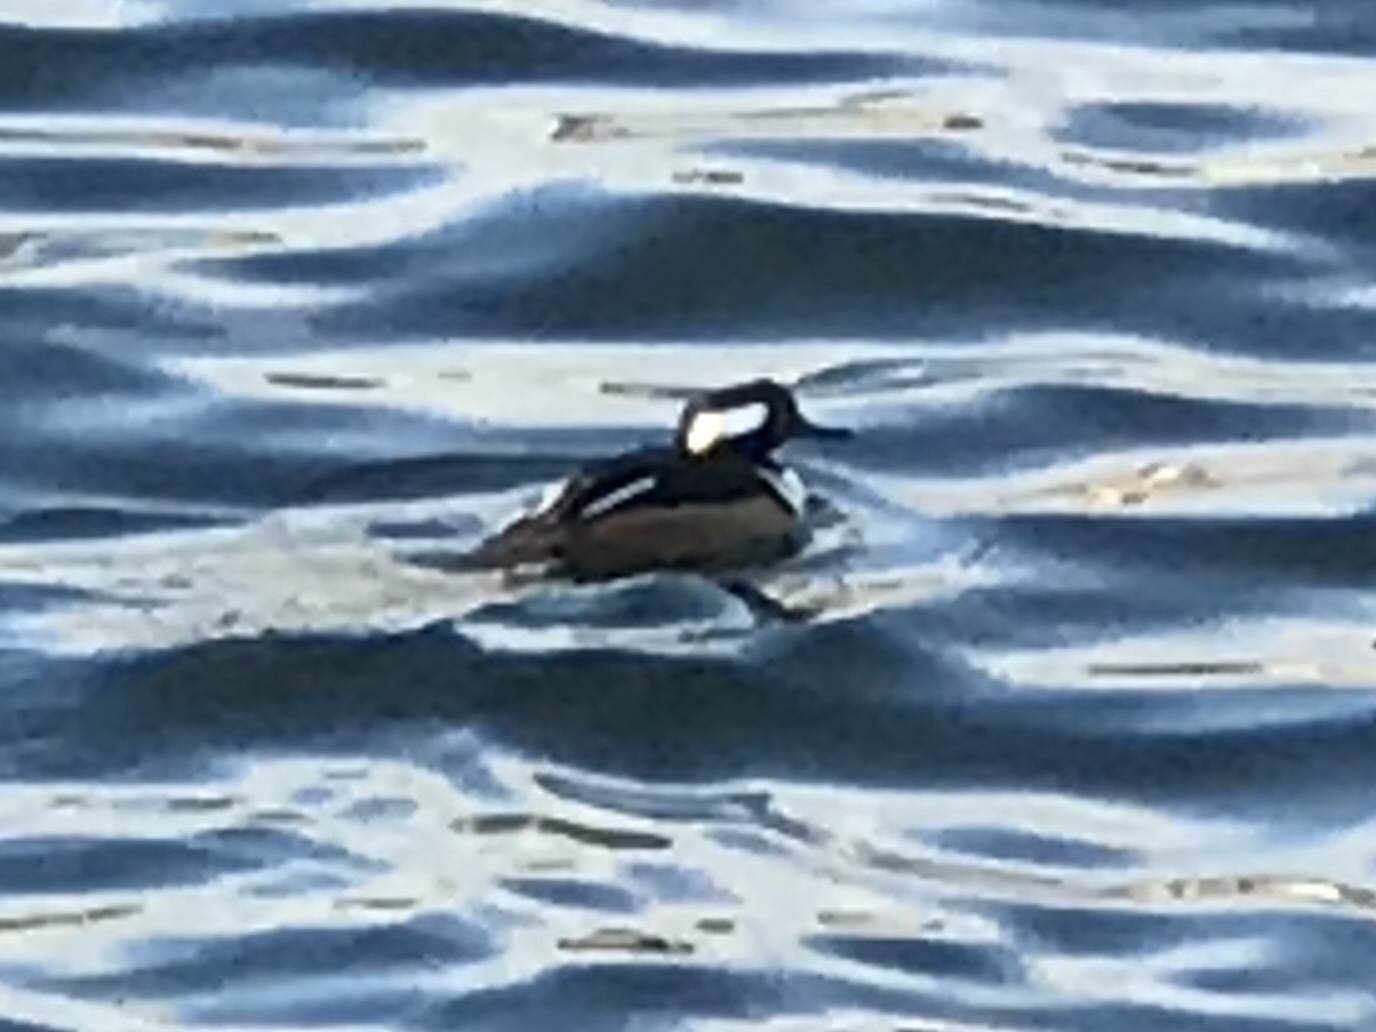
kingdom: Animalia
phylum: Chordata
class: Aves
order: Anseriformes
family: Anatidae
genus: Lophodytes
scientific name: Lophodytes cucullatus
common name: Hooded merganser
